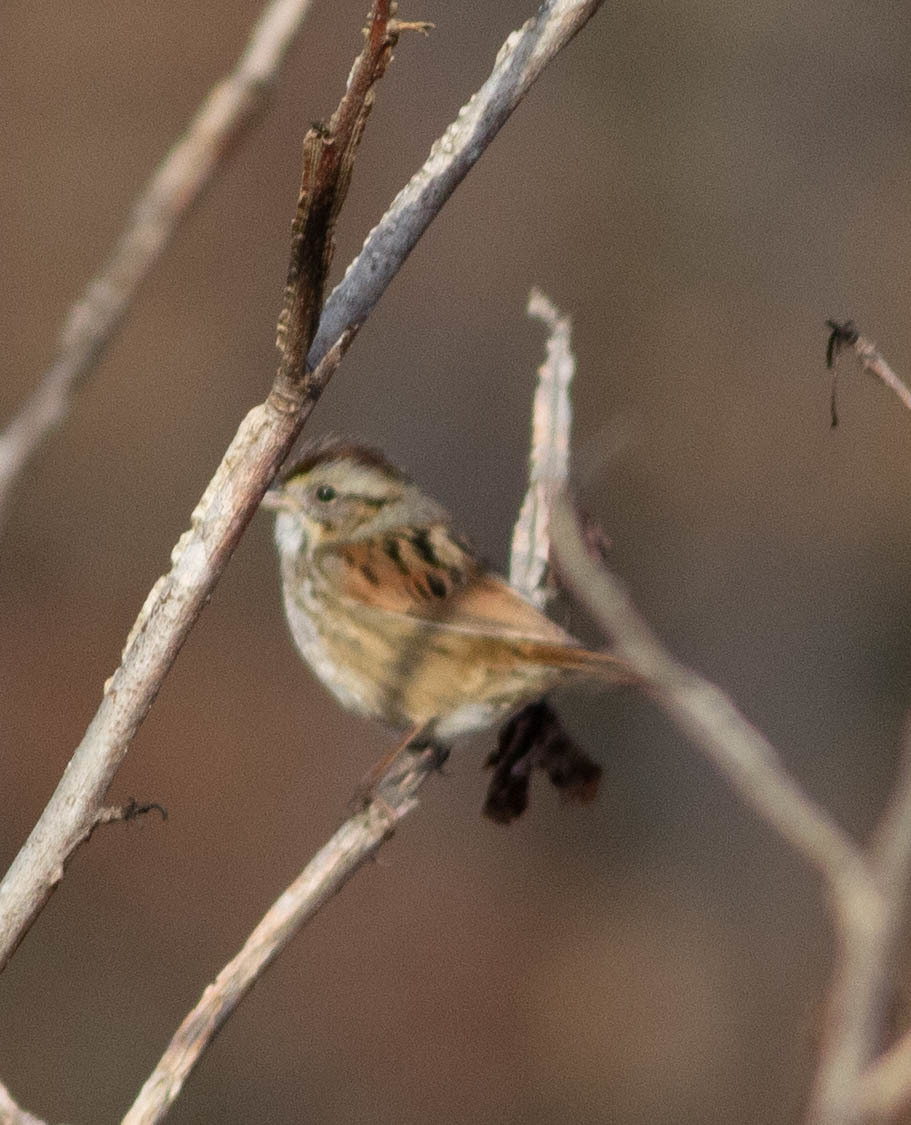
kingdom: Animalia
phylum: Chordata
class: Aves
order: Passeriformes
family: Passerellidae
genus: Melospiza
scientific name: Melospiza georgiana
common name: Swamp sparrow
